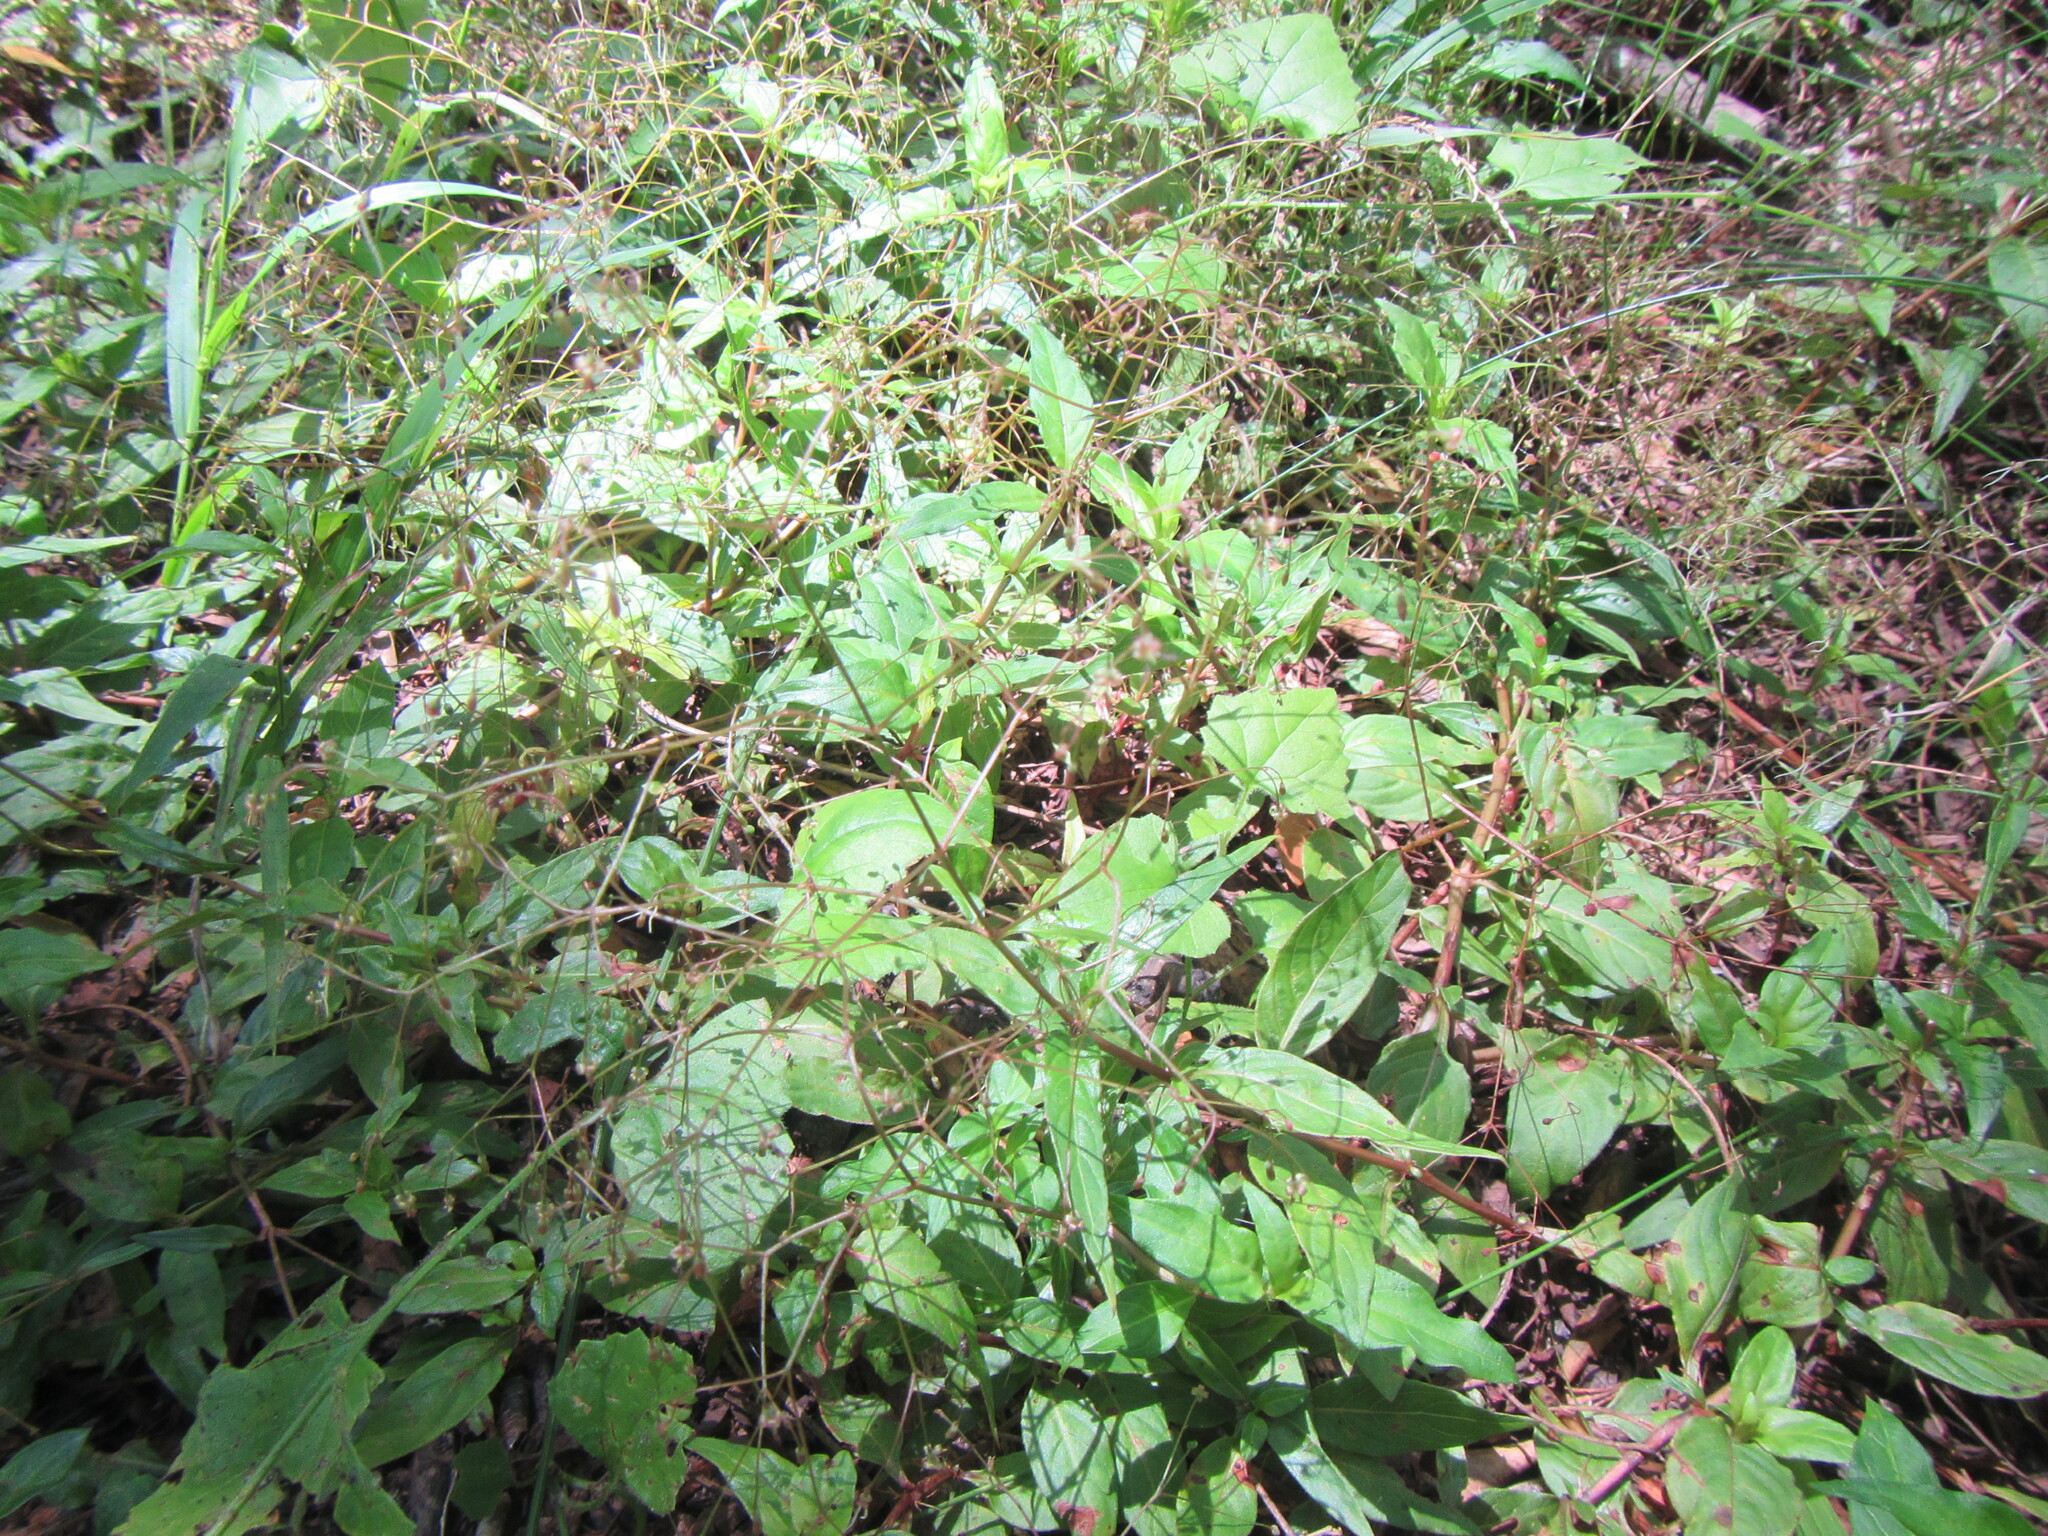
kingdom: Plantae
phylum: Tracheophyta
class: Magnoliopsida
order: Gentianales
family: Rubiaceae
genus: Galopina
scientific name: Galopina circaeoides
